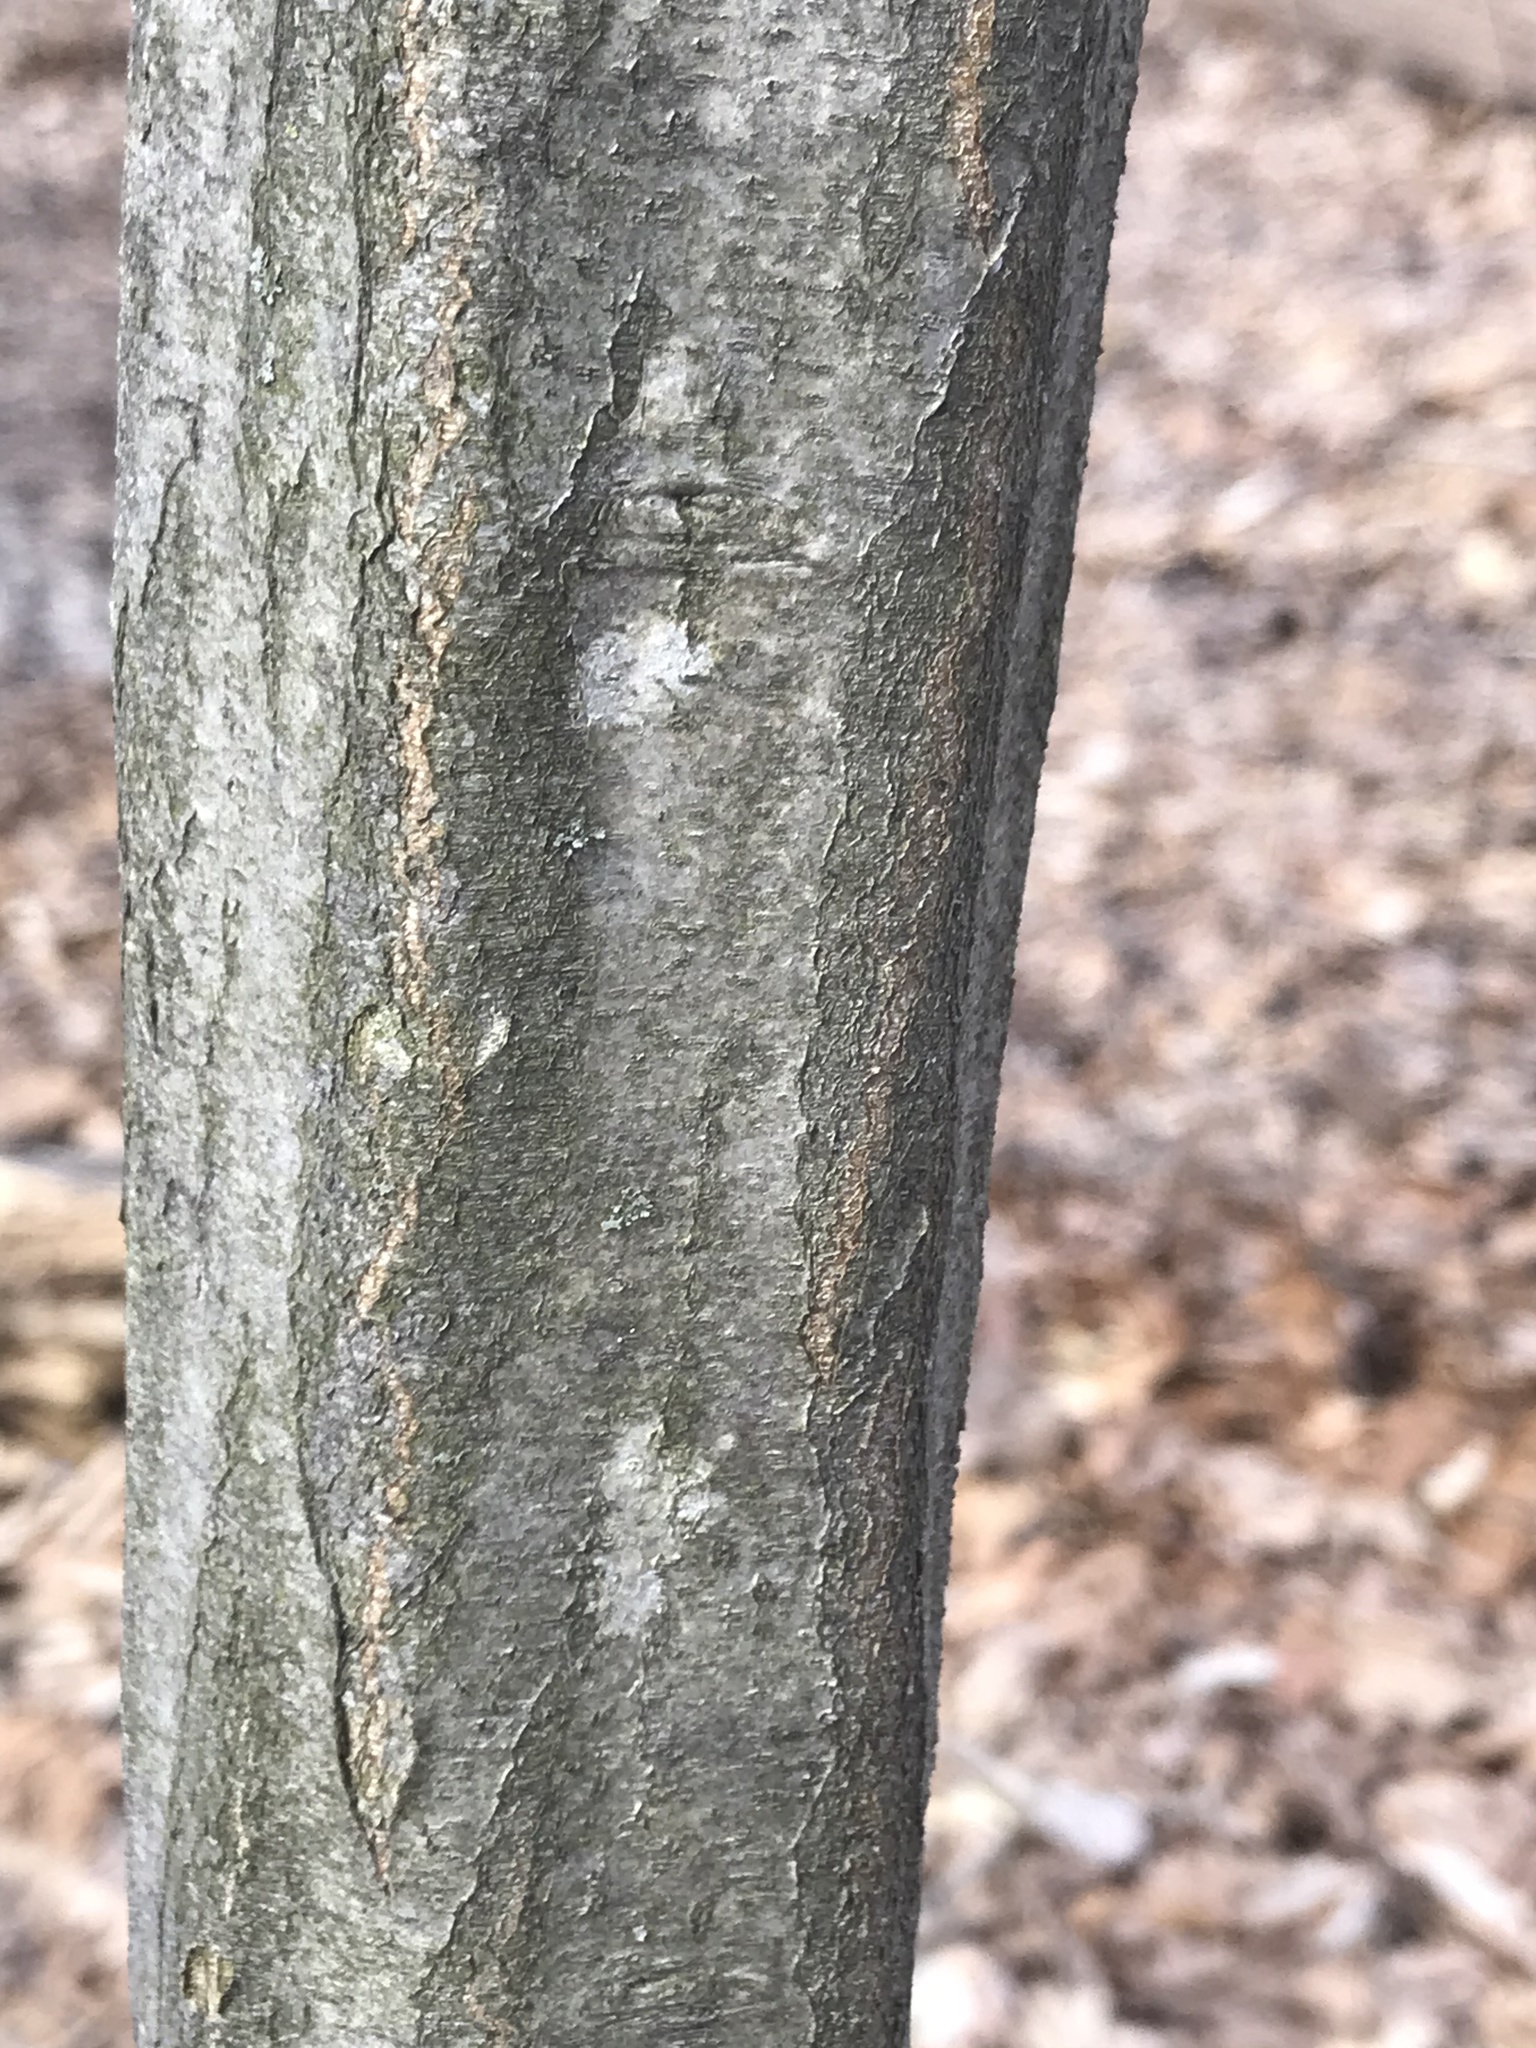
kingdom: Plantae
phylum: Tracheophyta
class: Magnoliopsida
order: Fagales
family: Betulaceae
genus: Carpinus
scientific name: Carpinus caroliniana
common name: American hornbeam
